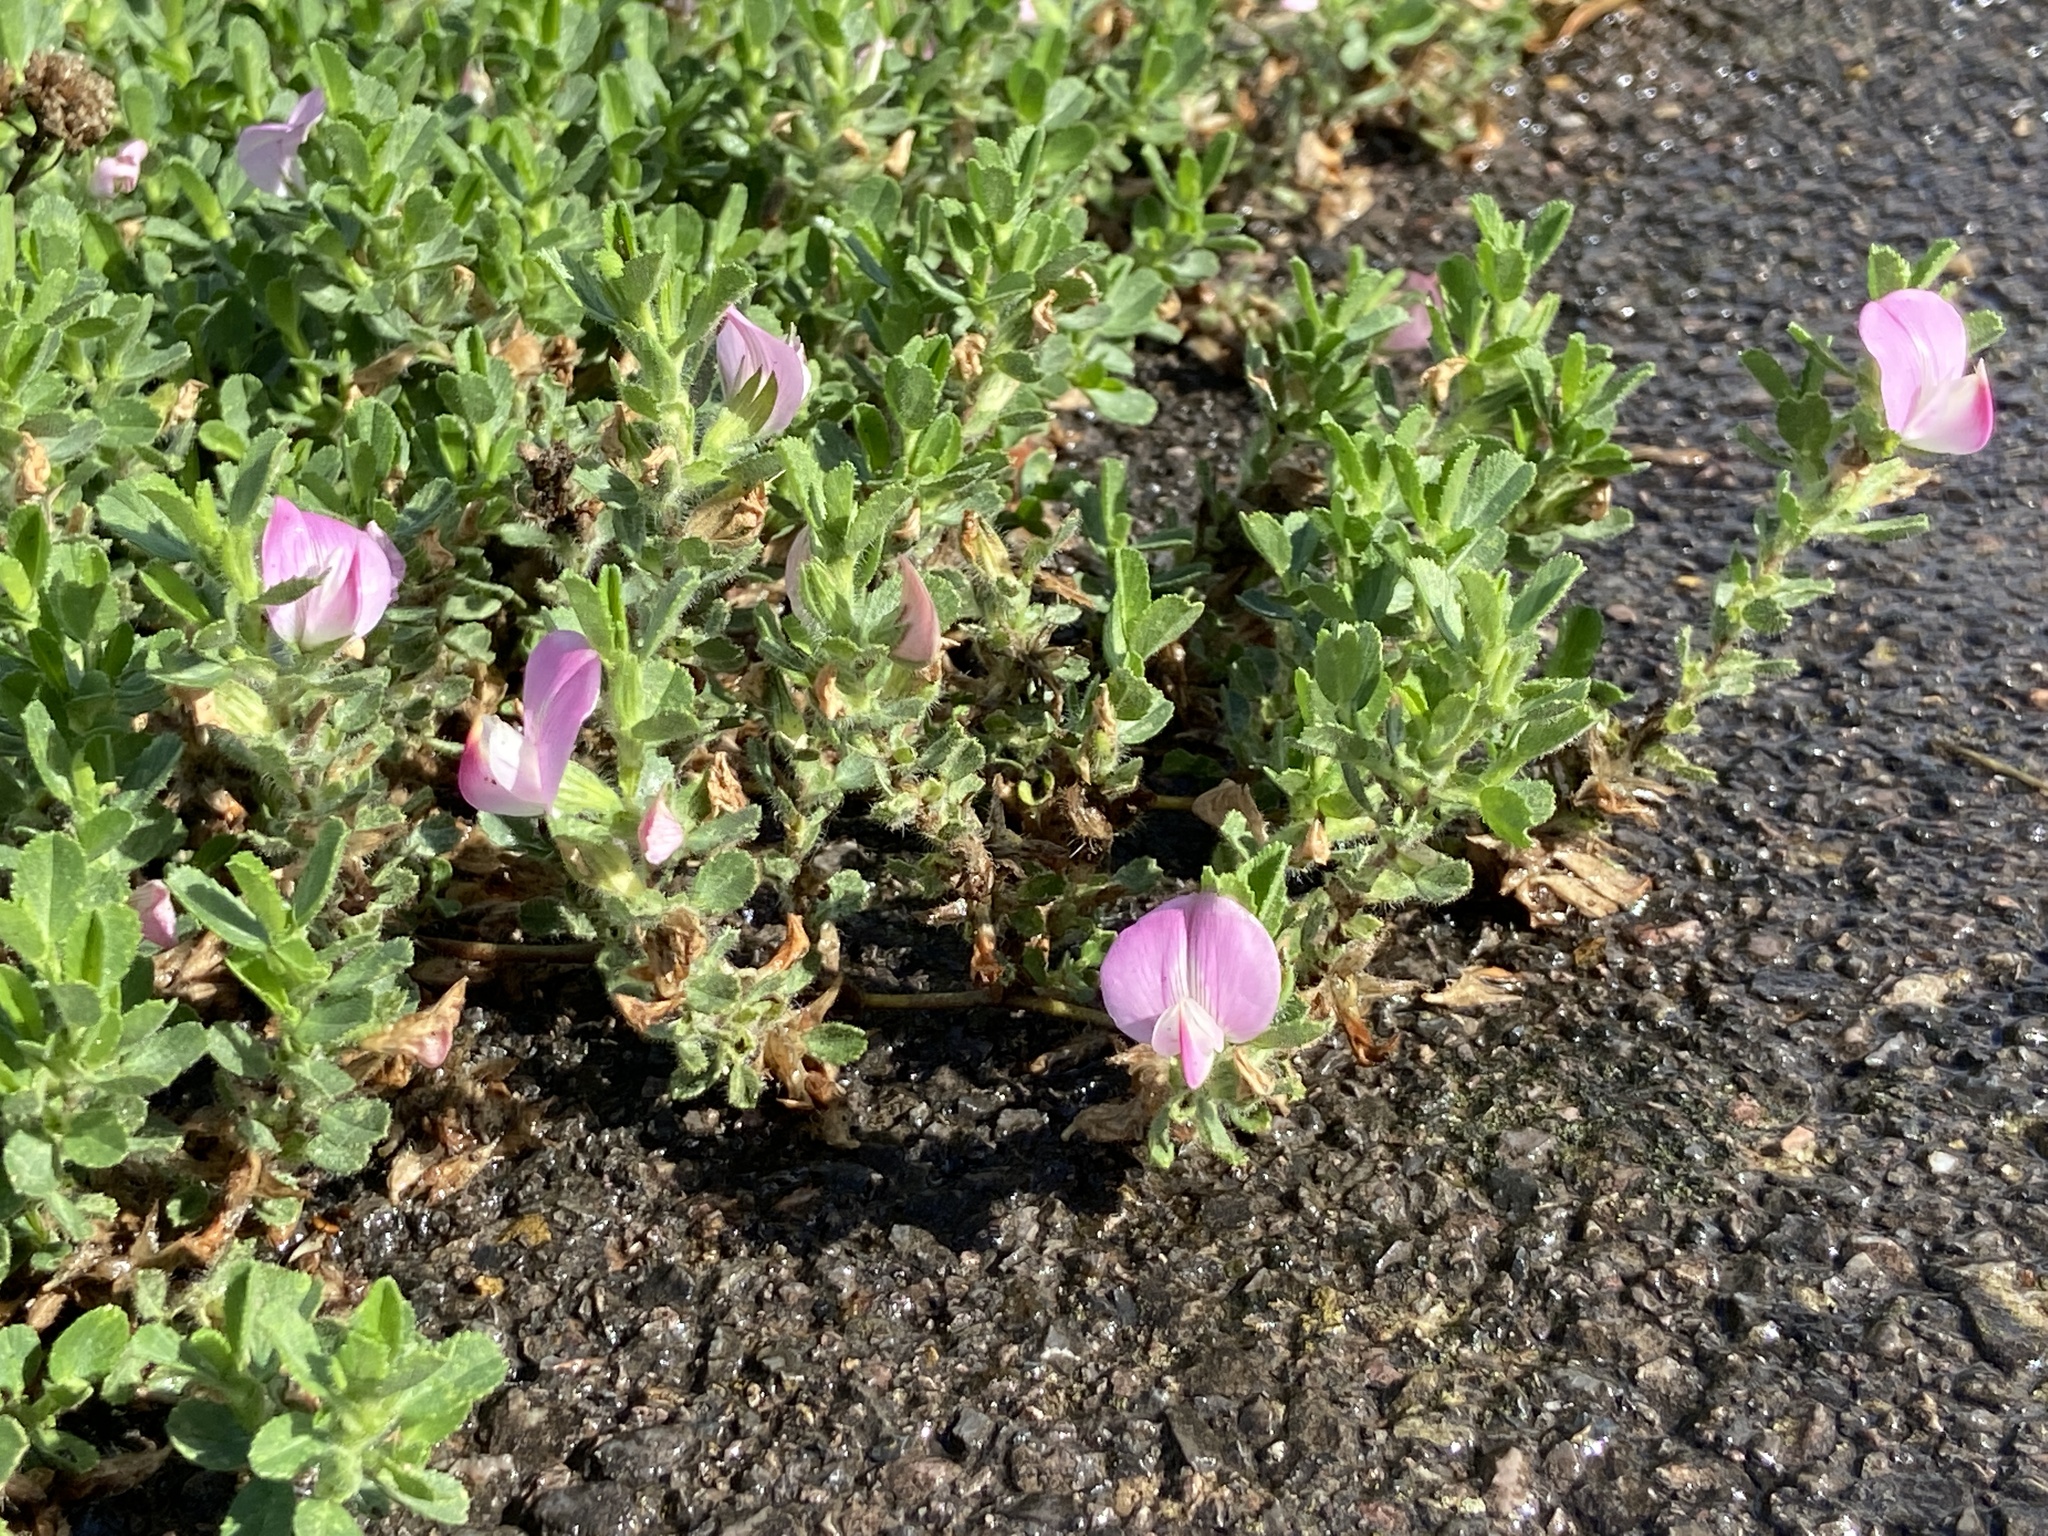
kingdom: Plantae
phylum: Tracheophyta
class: Magnoliopsida
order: Fabales
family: Fabaceae
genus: Ononis
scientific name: Ononis spinosa
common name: Spiny restharrow
